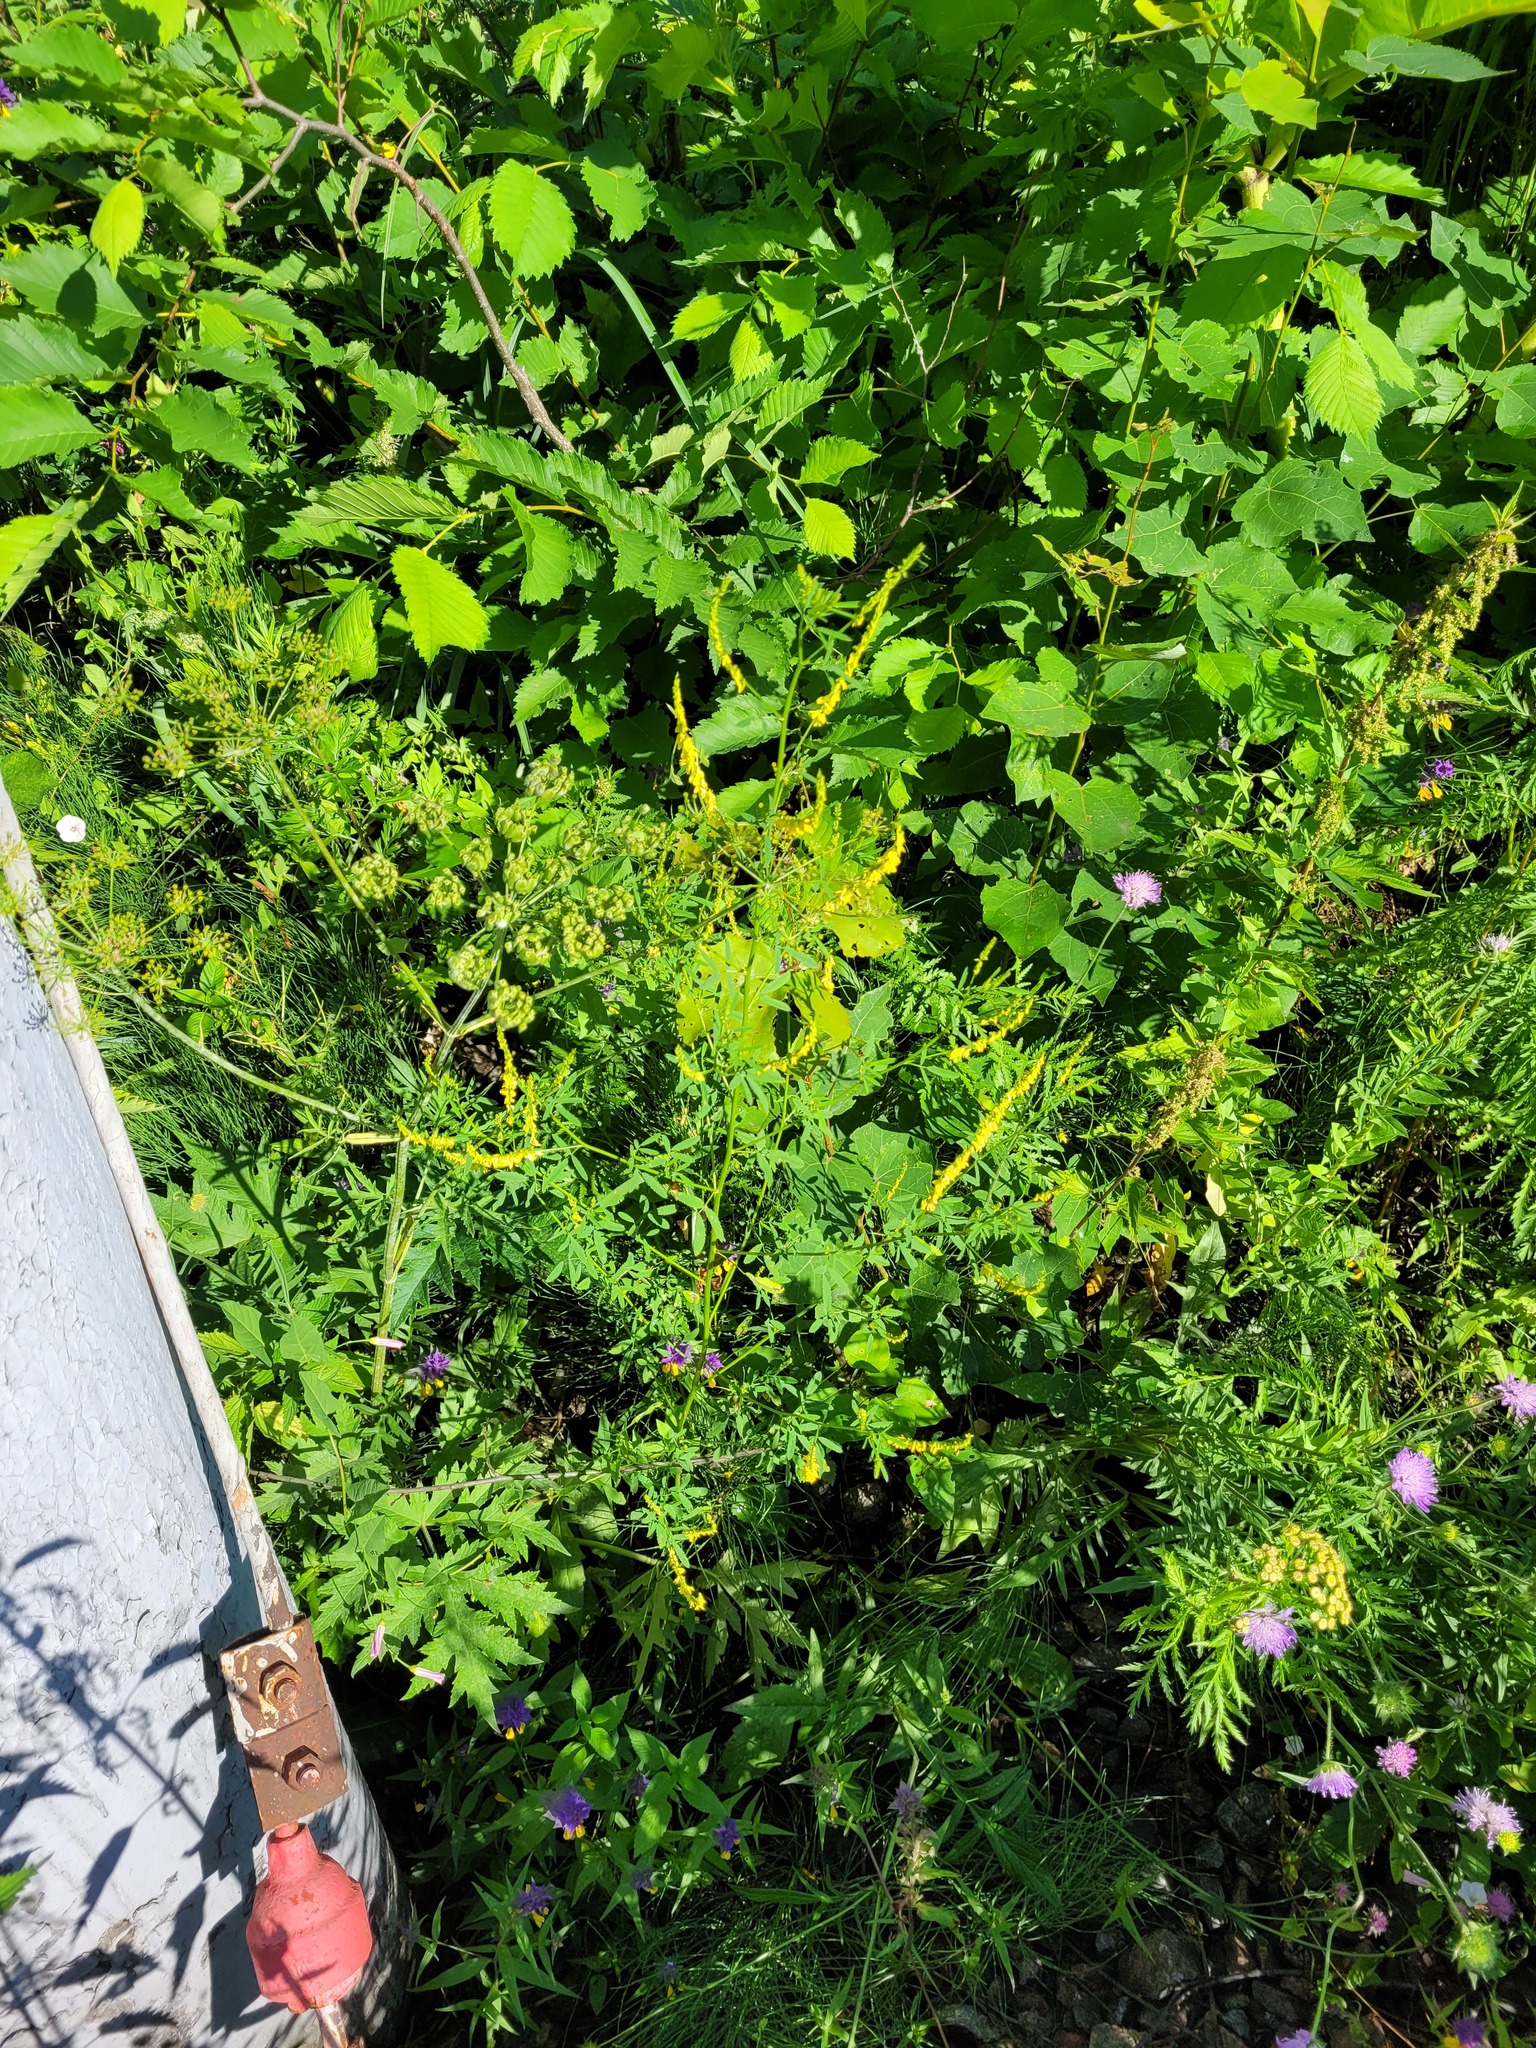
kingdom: Plantae
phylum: Tracheophyta
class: Magnoliopsida
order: Fabales
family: Fabaceae
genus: Melilotus
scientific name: Melilotus officinalis
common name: Sweetclover
